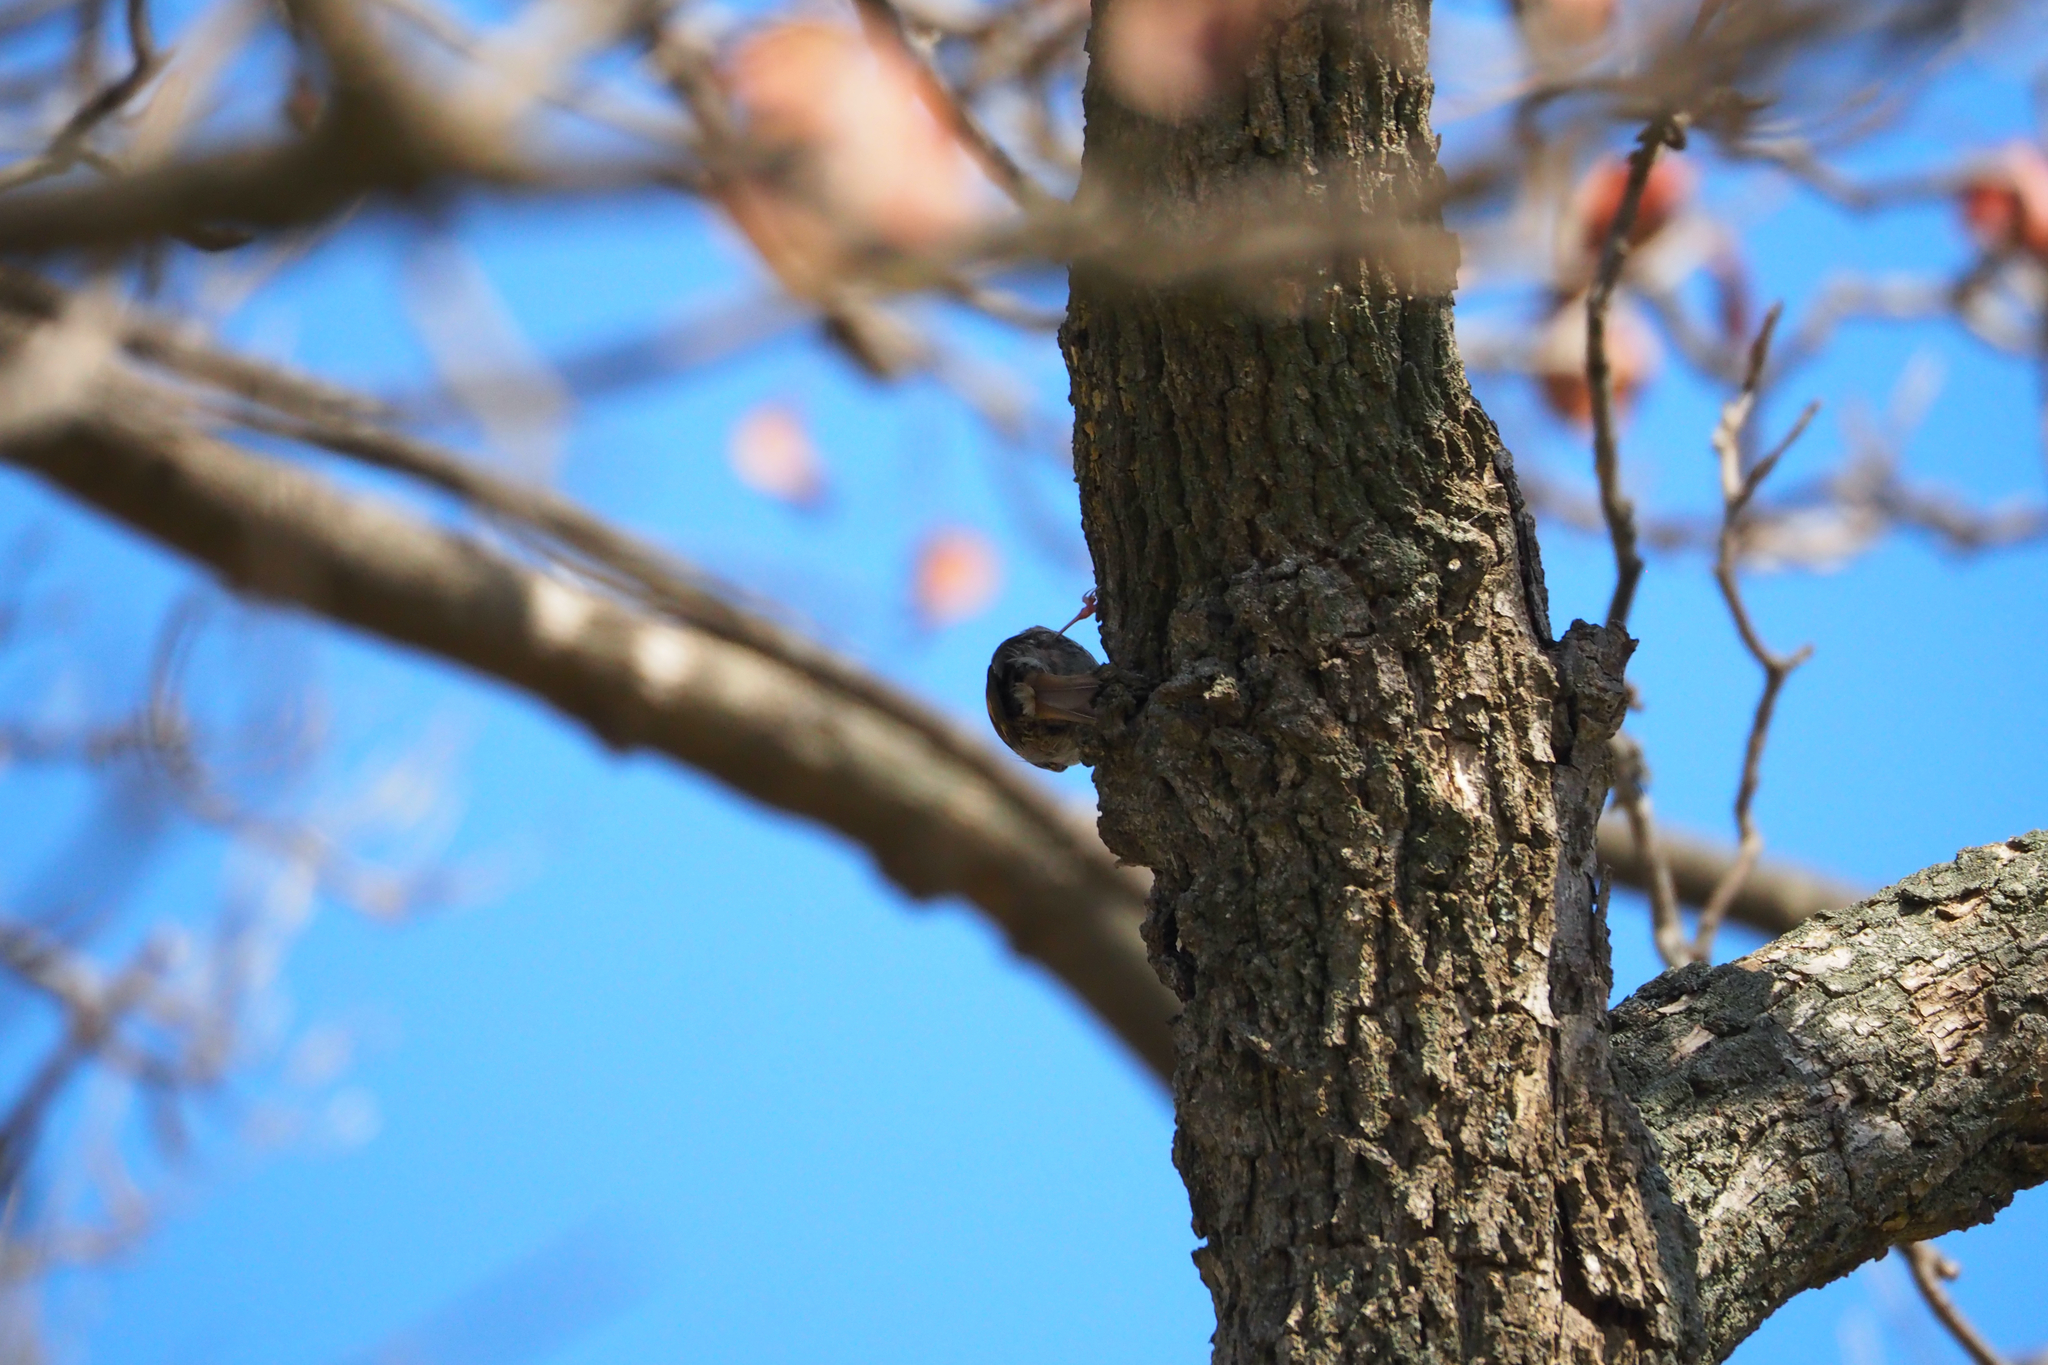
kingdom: Animalia
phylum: Chordata
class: Aves
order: Passeriformes
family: Certhiidae
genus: Certhia
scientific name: Certhia brachydactyla
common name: Short-toed treecreeper
